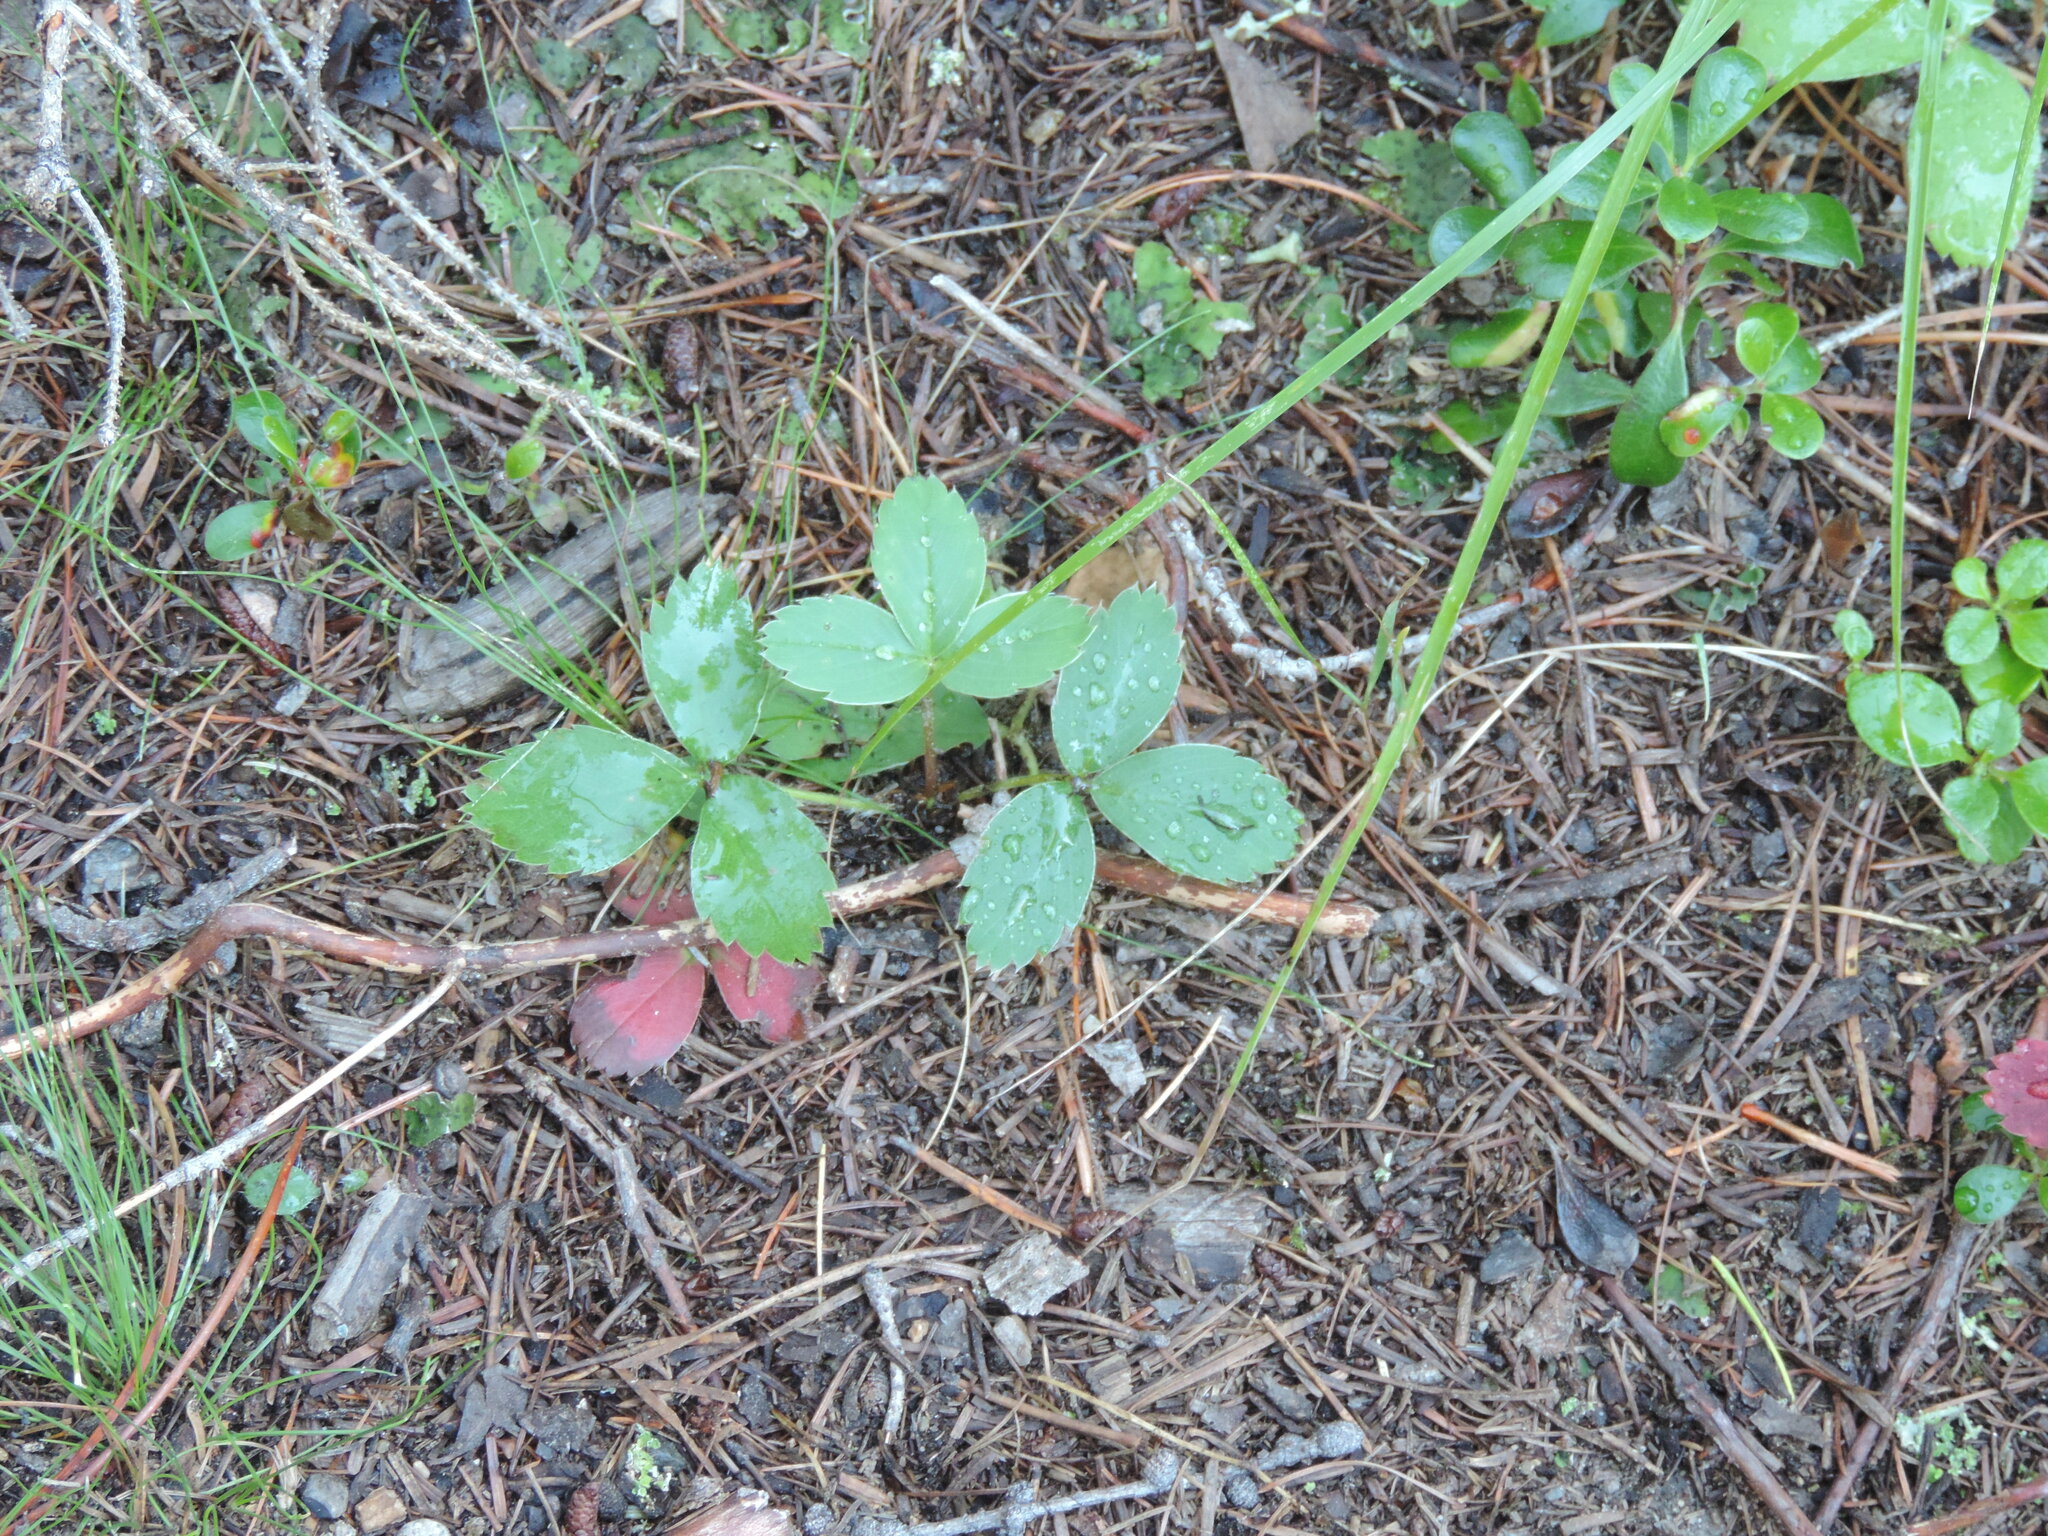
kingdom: Plantae
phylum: Tracheophyta
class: Magnoliopsida
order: Rosales
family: Rosaceae
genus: Fragaria
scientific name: Fragaria virginiana
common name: Thickleaved wild strawberry
